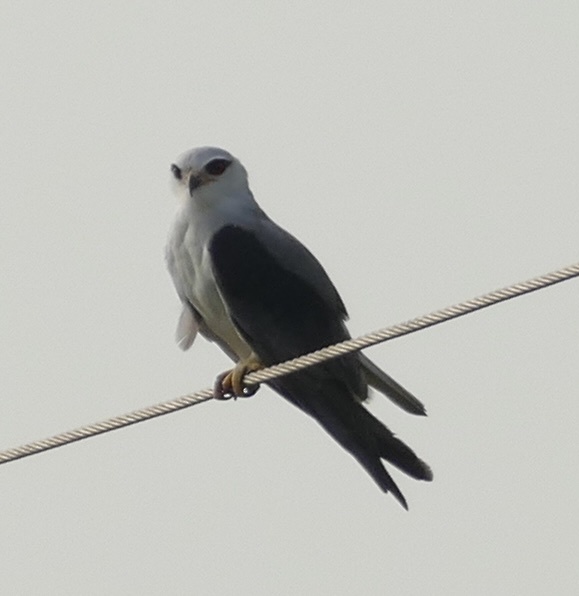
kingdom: Animalia
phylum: Chordata
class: Aves
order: Accipitriformes
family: Accipitridae
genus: Elanus
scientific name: Elanus caeruleus
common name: Black-winged kite
